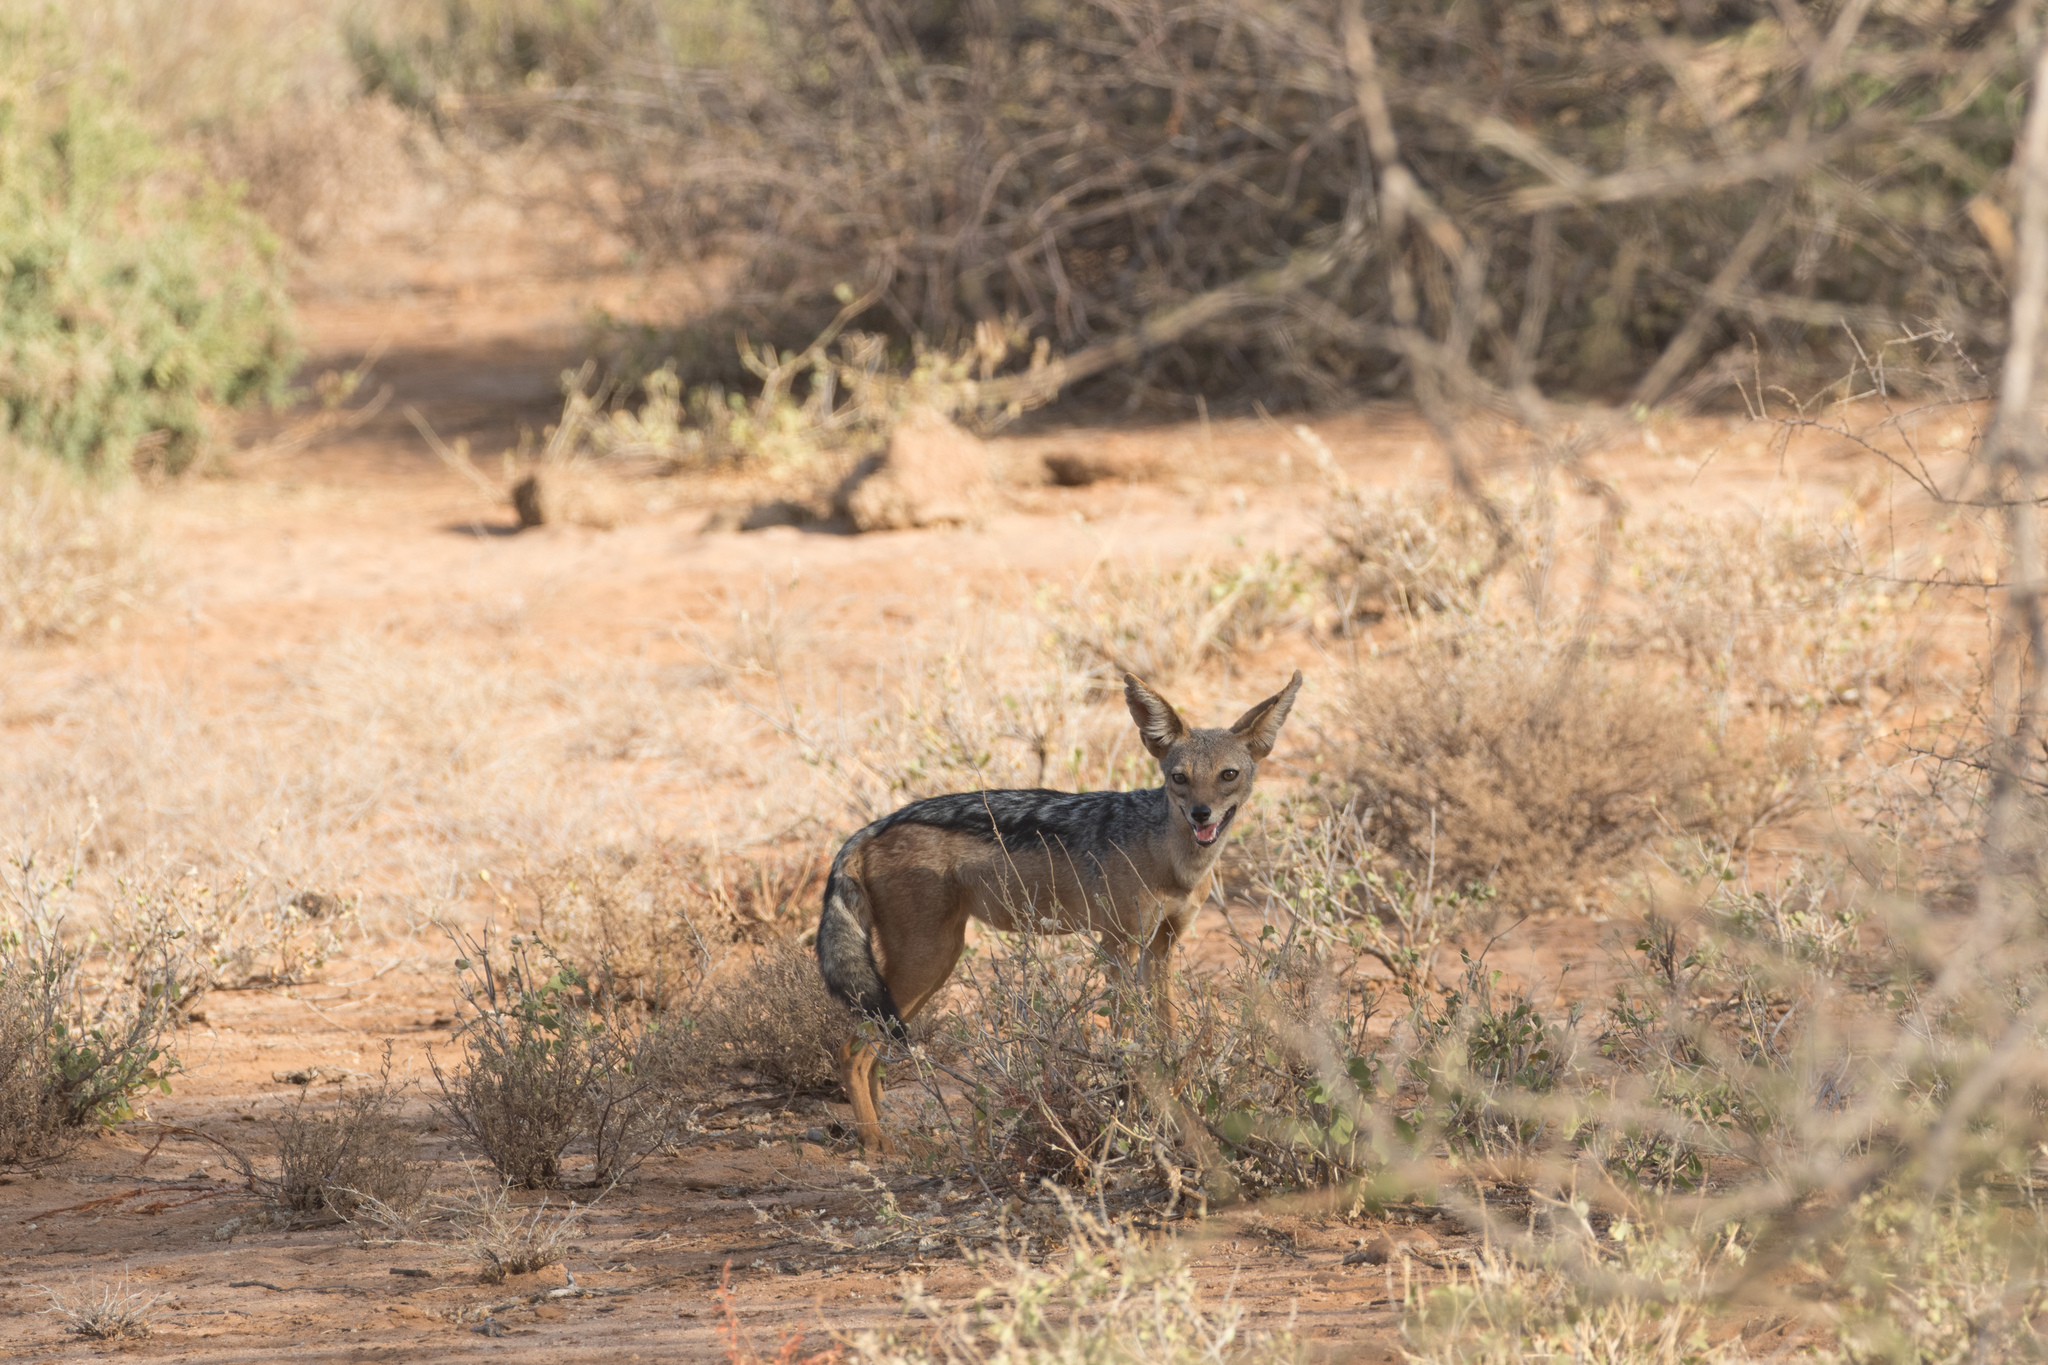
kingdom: Animalia
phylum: Chordata
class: Mammalia
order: Carnivora
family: Canidae
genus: Lupulella
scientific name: Lupulella
